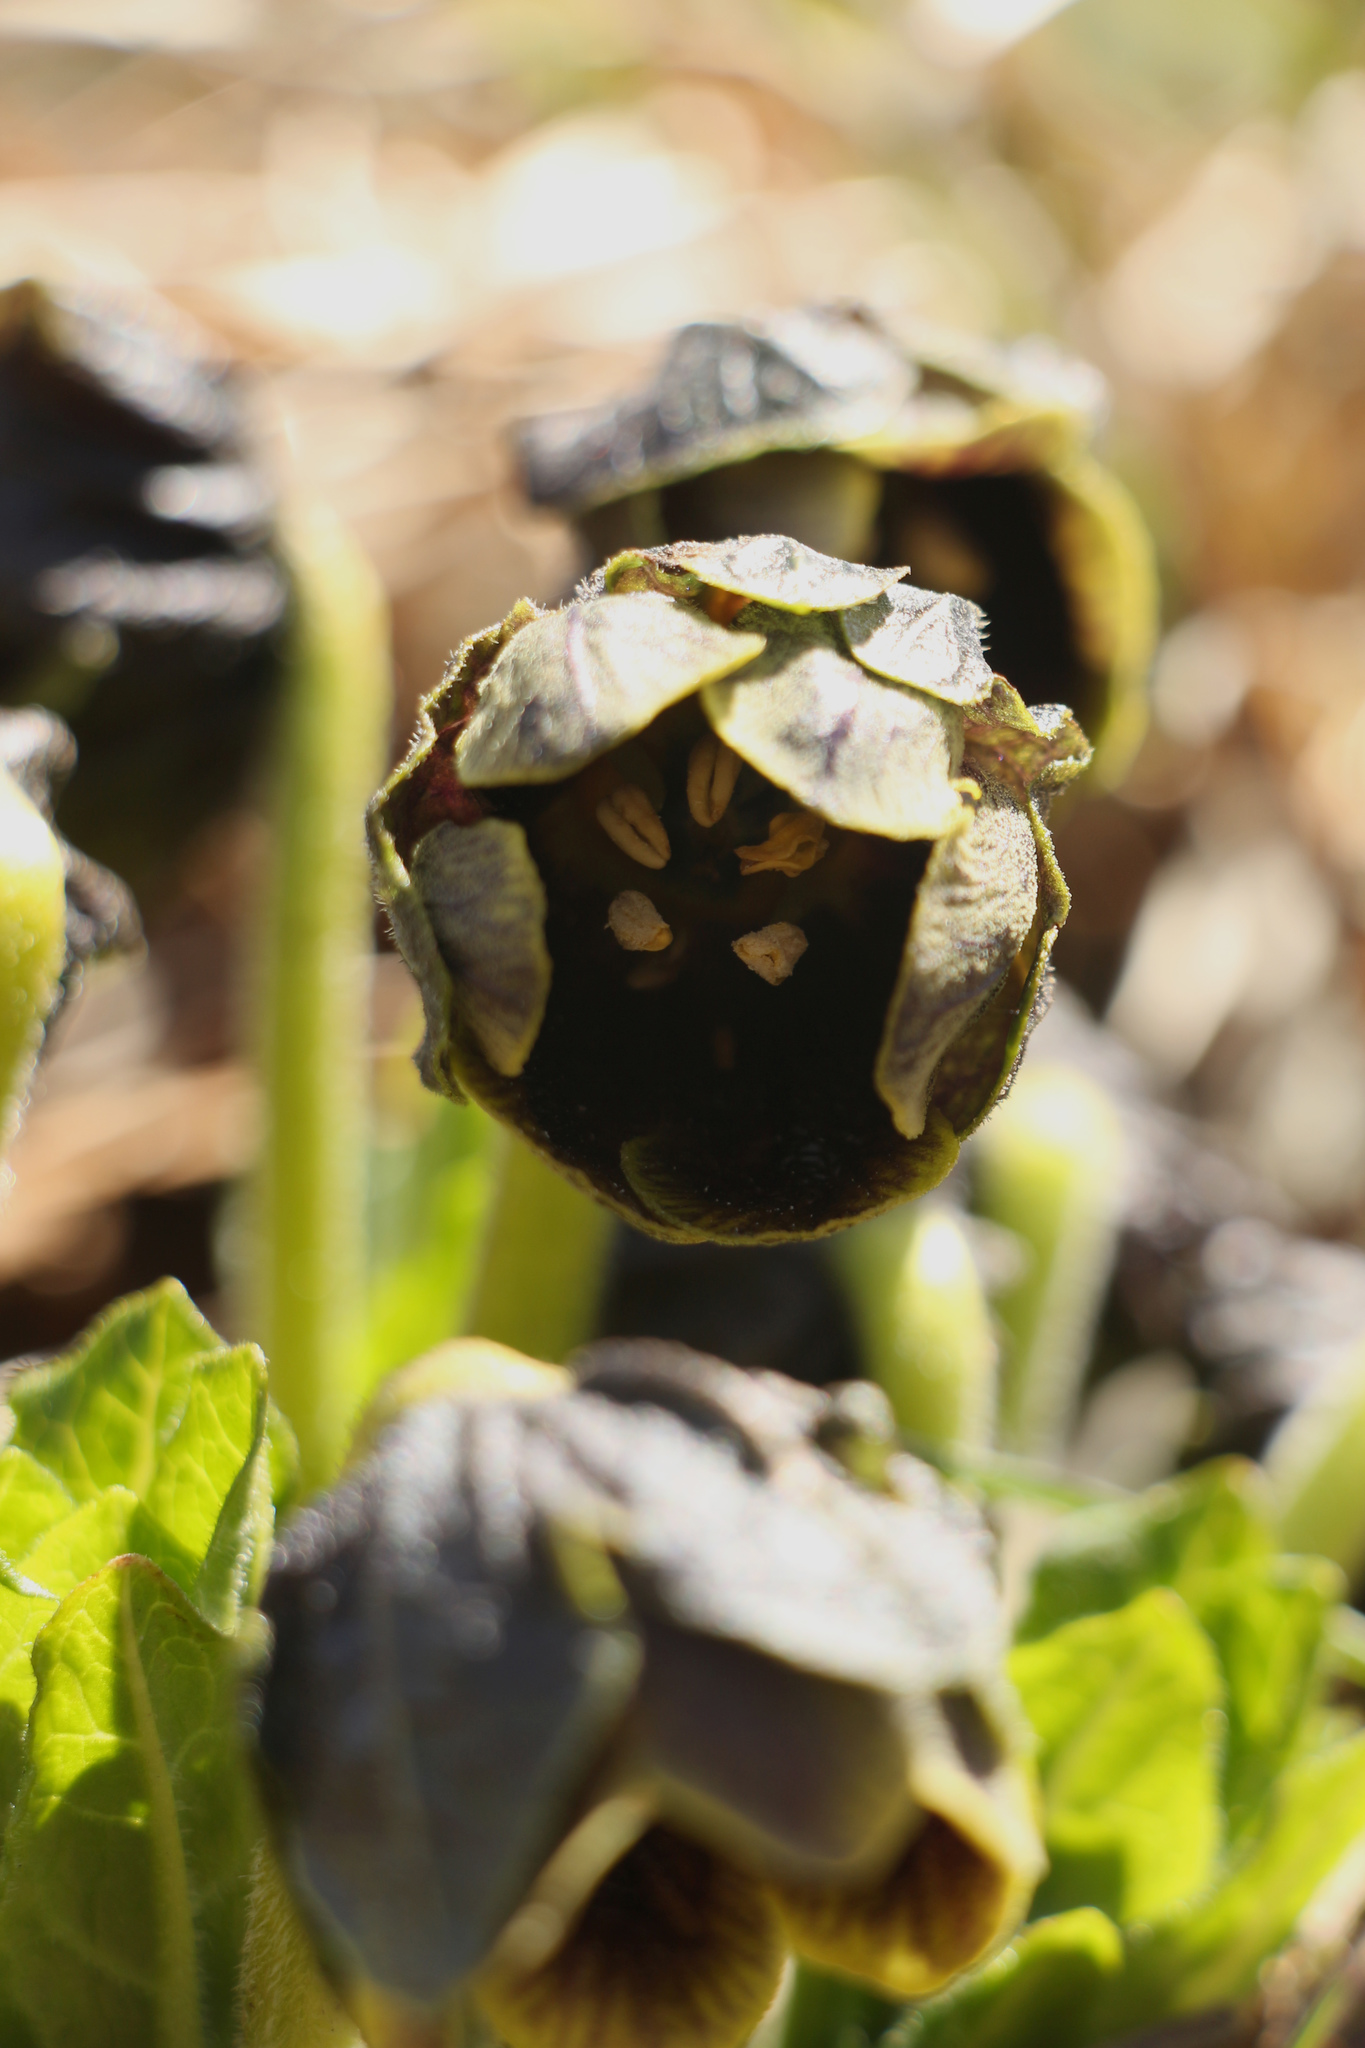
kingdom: Plantae
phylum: Tracheophyta
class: Magnoliopsida
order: Solanales
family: Solanaceae
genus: Mandragora
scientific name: Mandragora caulescens
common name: Himalayan mandrake
